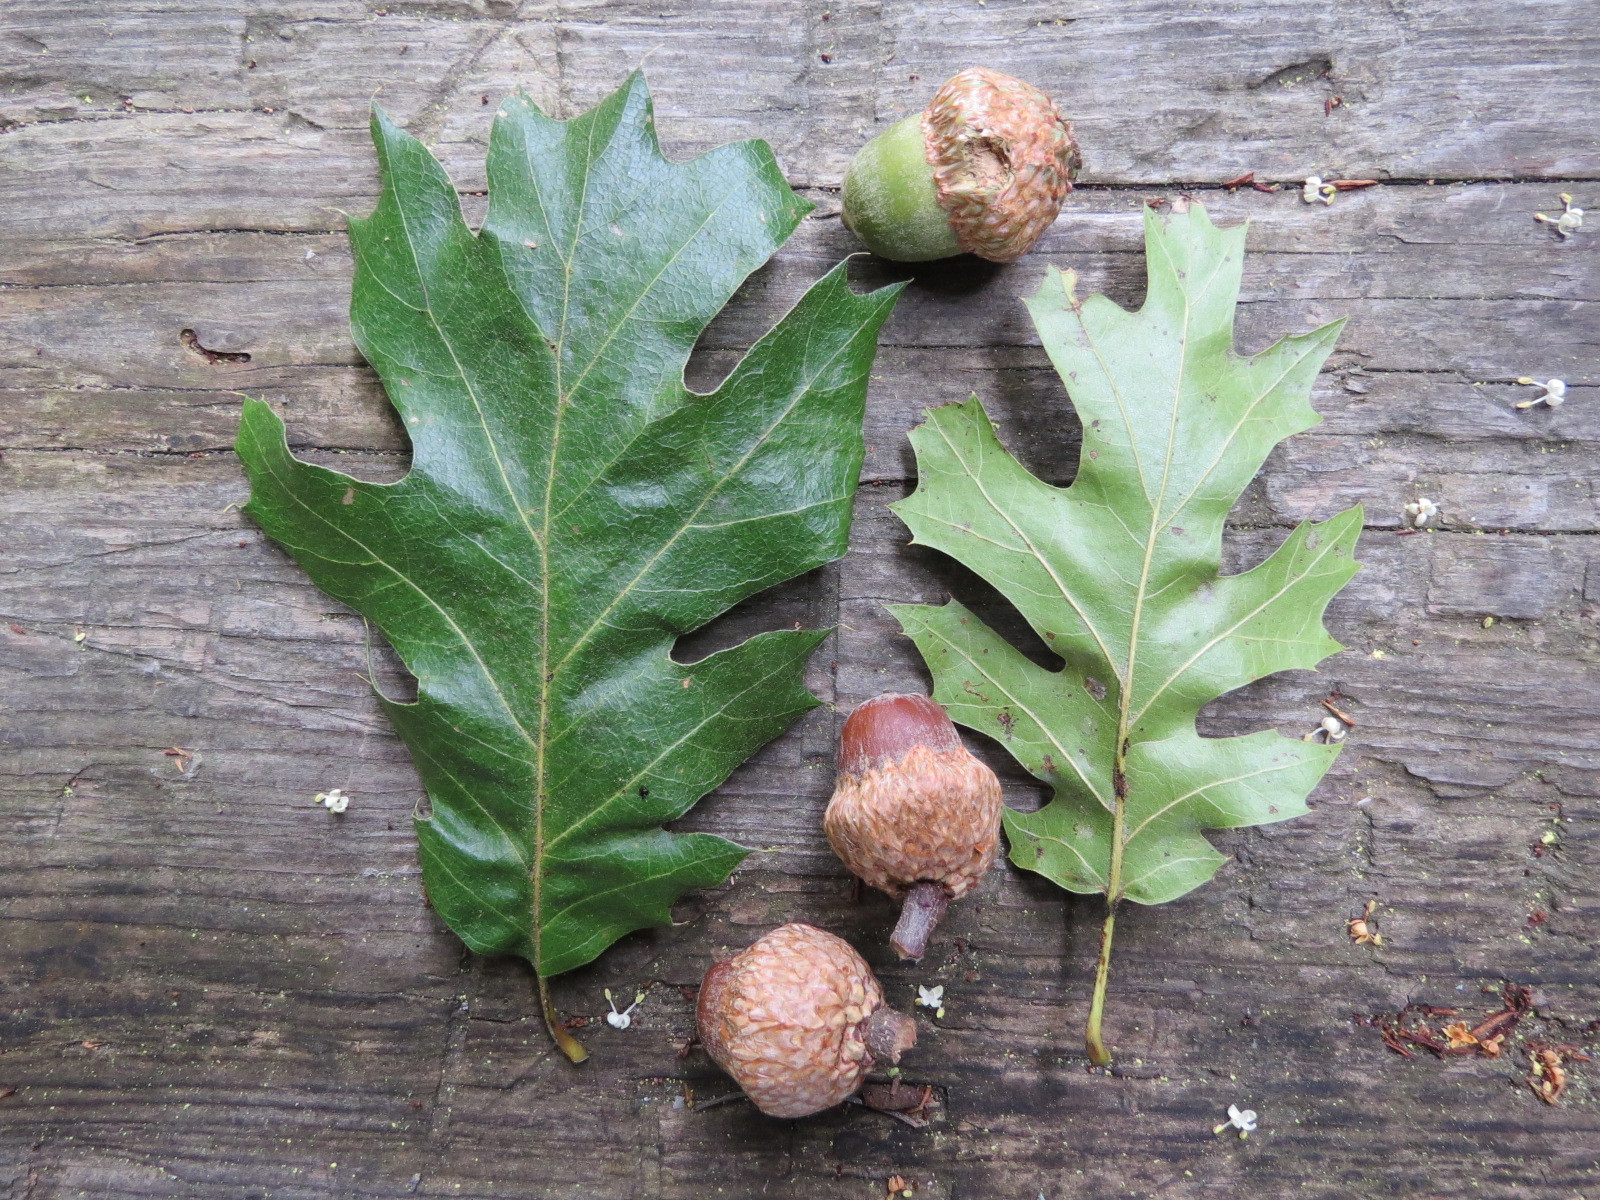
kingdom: Plantae
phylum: Tracheophyta
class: Magnoliopsida
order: Fagales
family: Fagaceae
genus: Quercus
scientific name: Quercus kelloggii
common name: California black oak
